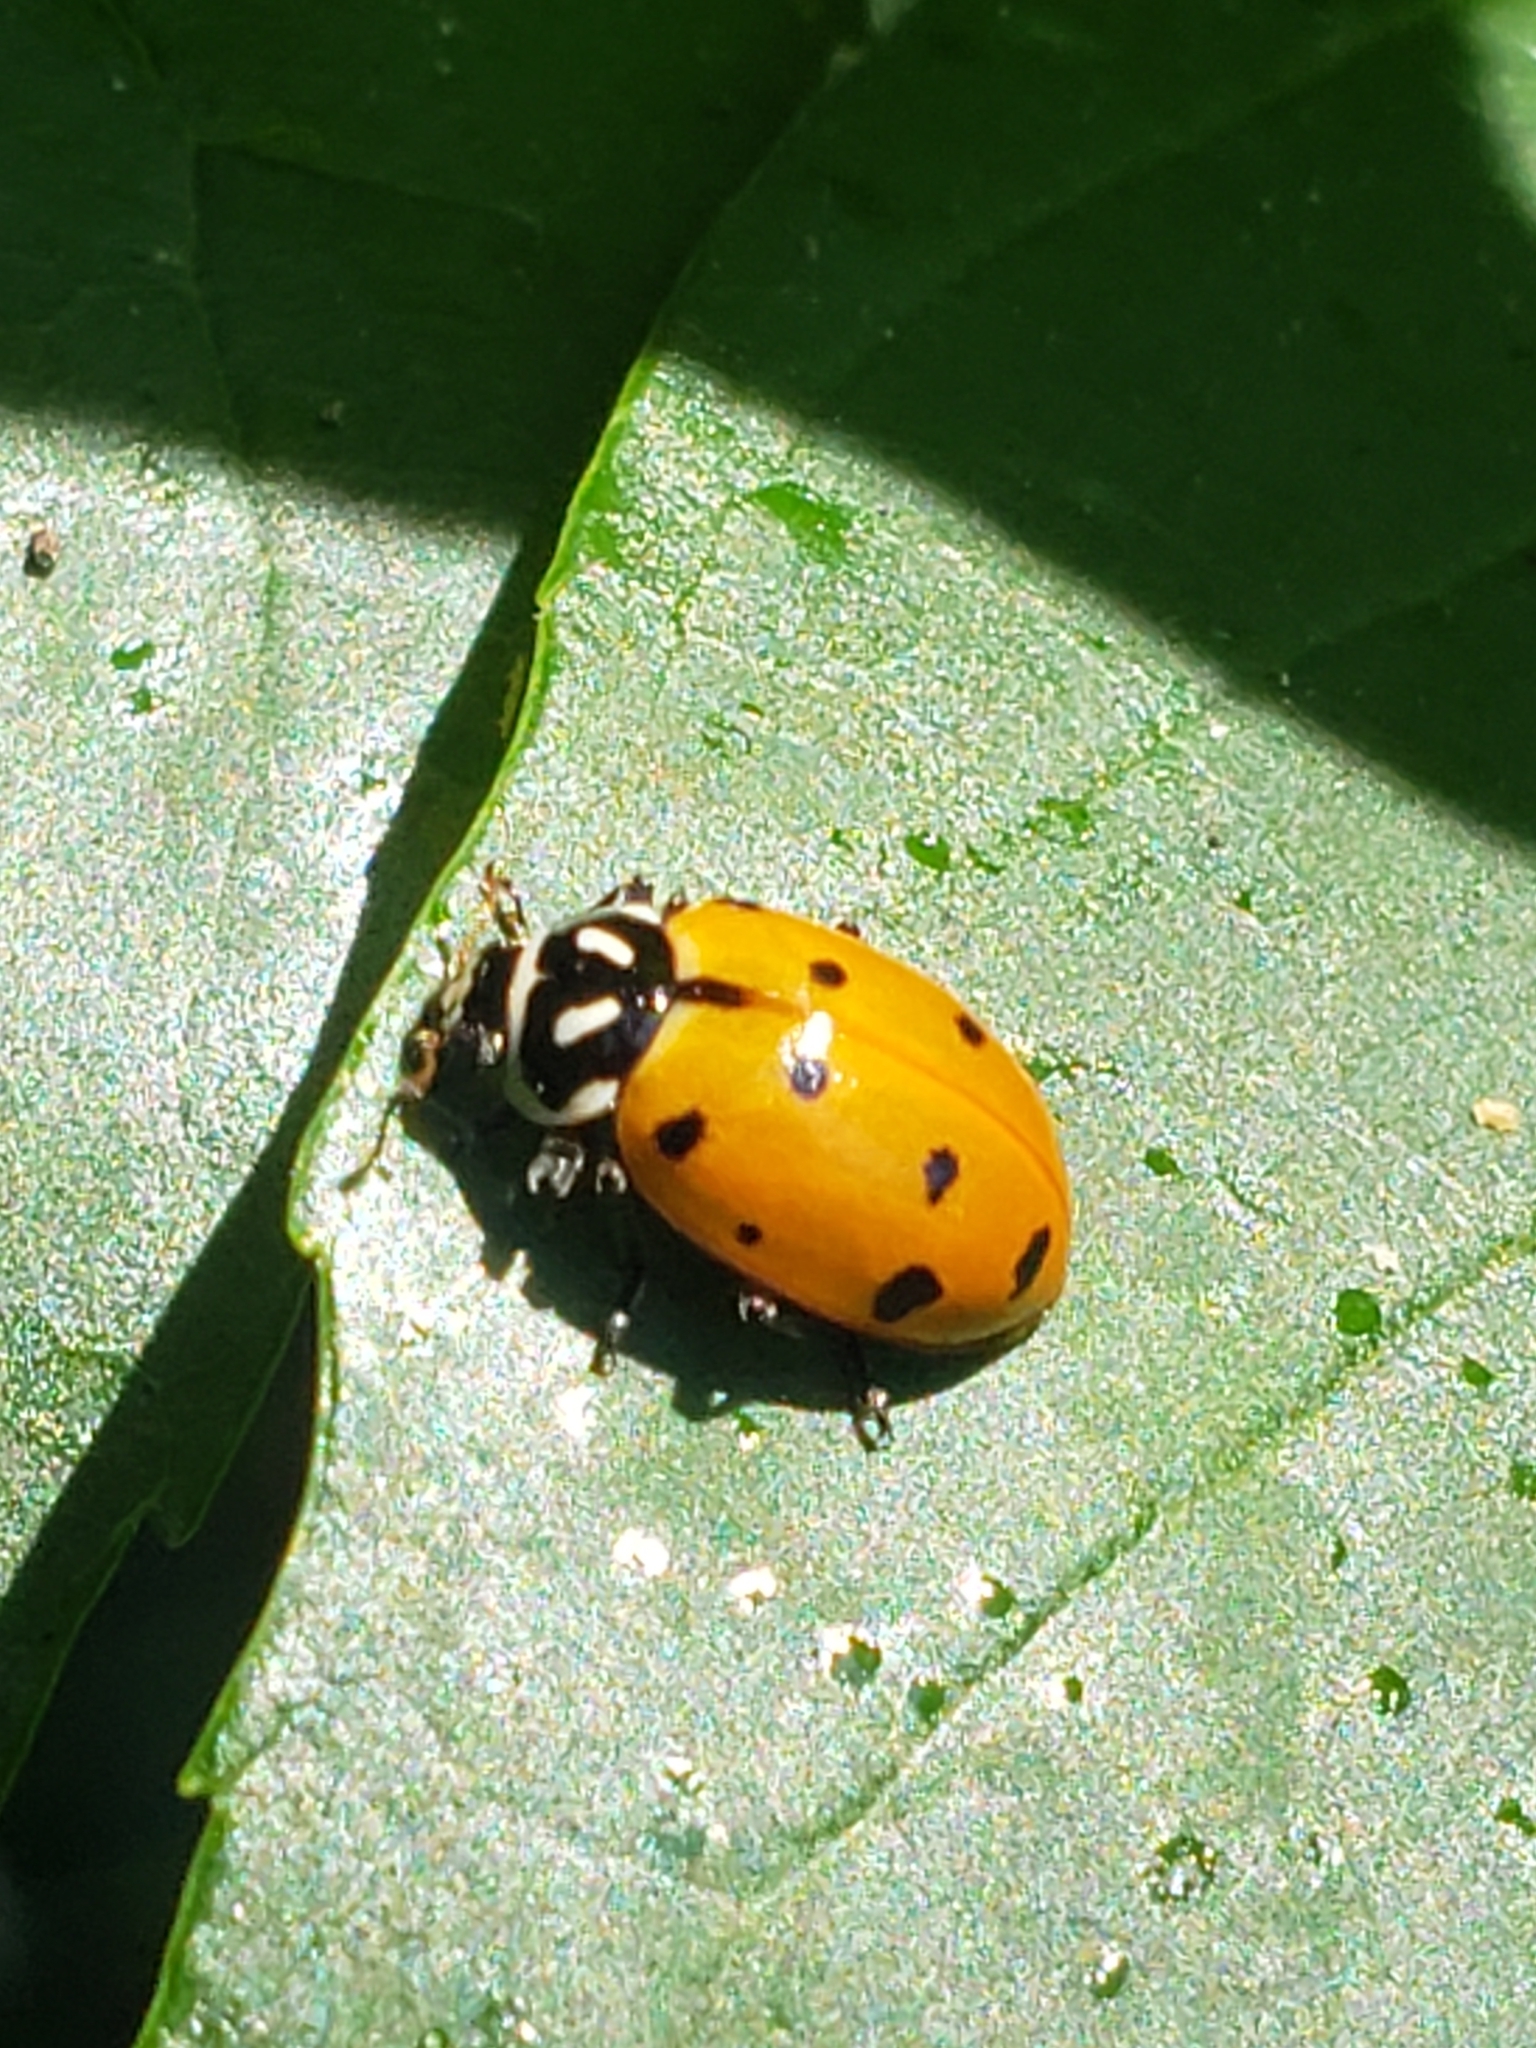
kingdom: Animalia
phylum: Arthropoda
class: Insecta
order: Coleoptera
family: Coccinellidae
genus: Hippodamia
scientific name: Hippodamia convergens
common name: Convergent lady beetle
